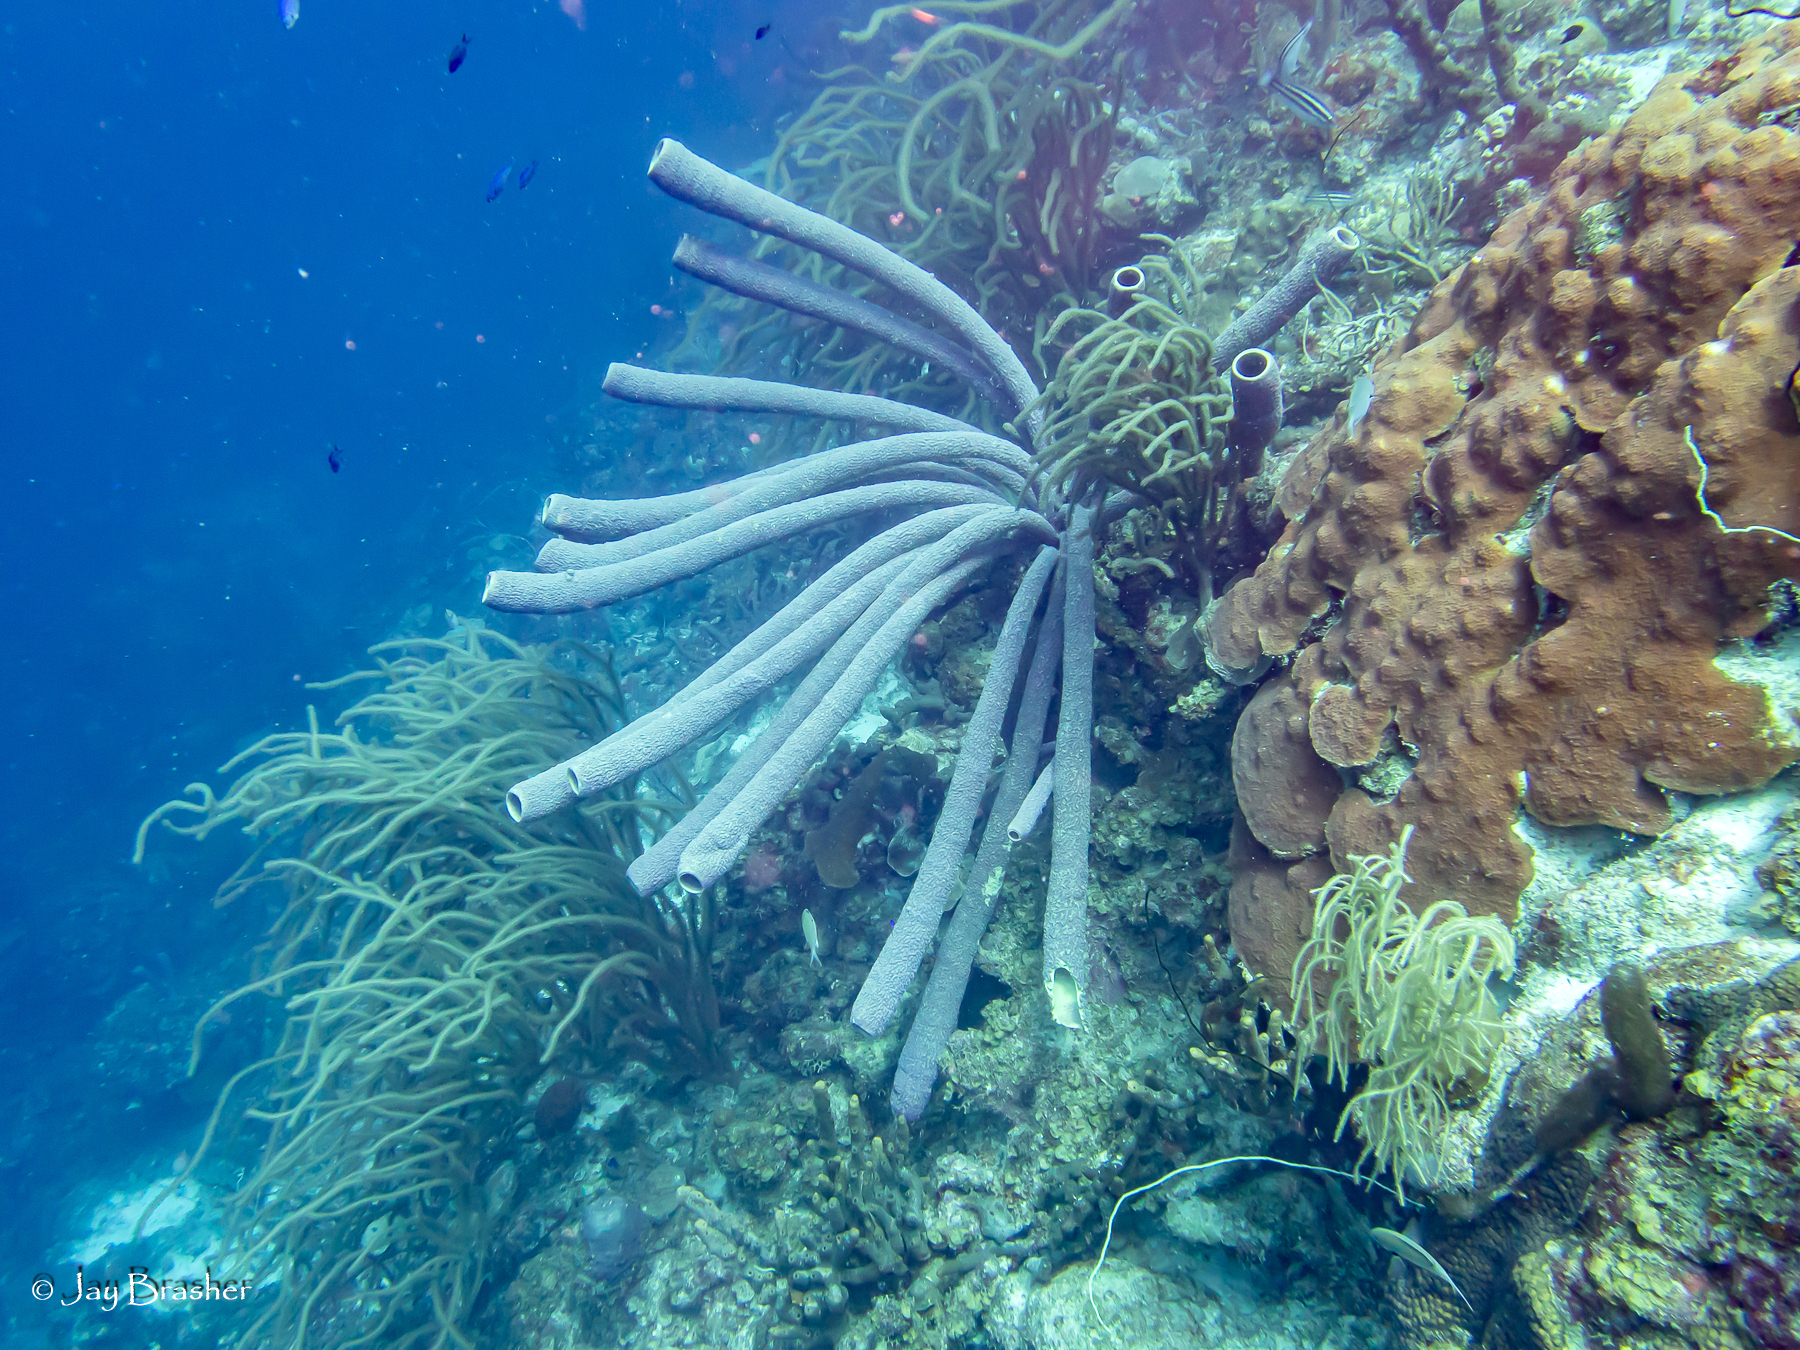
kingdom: Animalia
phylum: Cnidaria
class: Anthozoa
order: Scleractinia
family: Merulinidae
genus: Orbicella
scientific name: Orbicella faveolata
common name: Mountainous star coral
